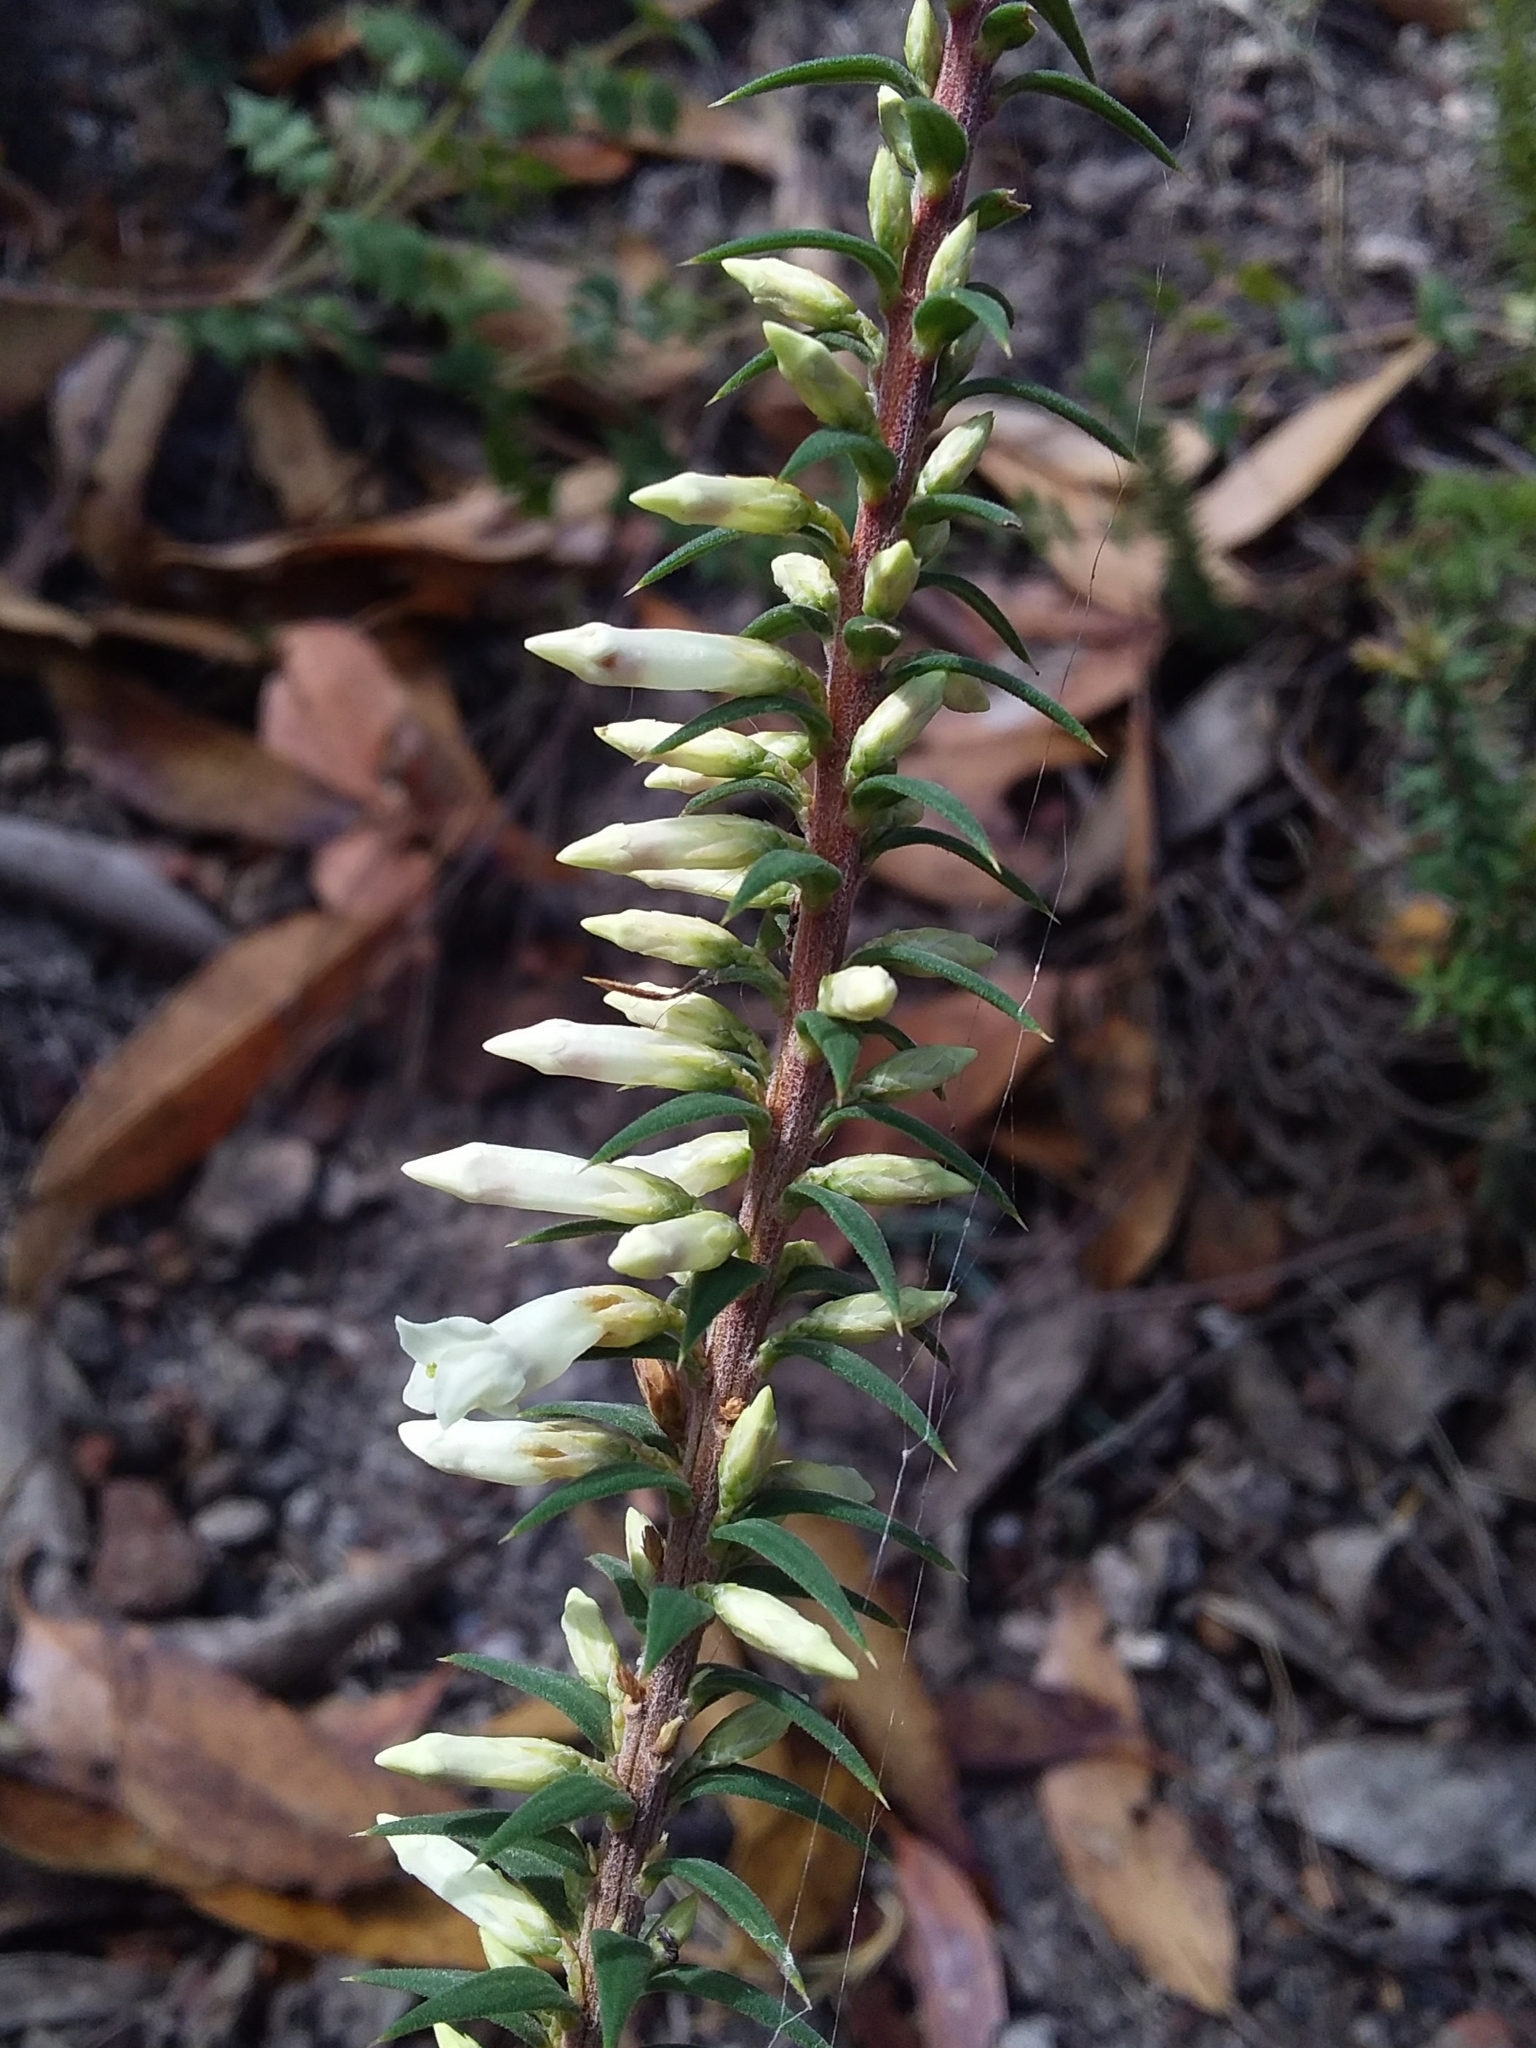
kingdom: Plantae
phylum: Tracheophyta
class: Magnoliopsida
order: Ericales
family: Ericaceae
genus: Epacris
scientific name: Epacris impressa
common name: Common-heath
